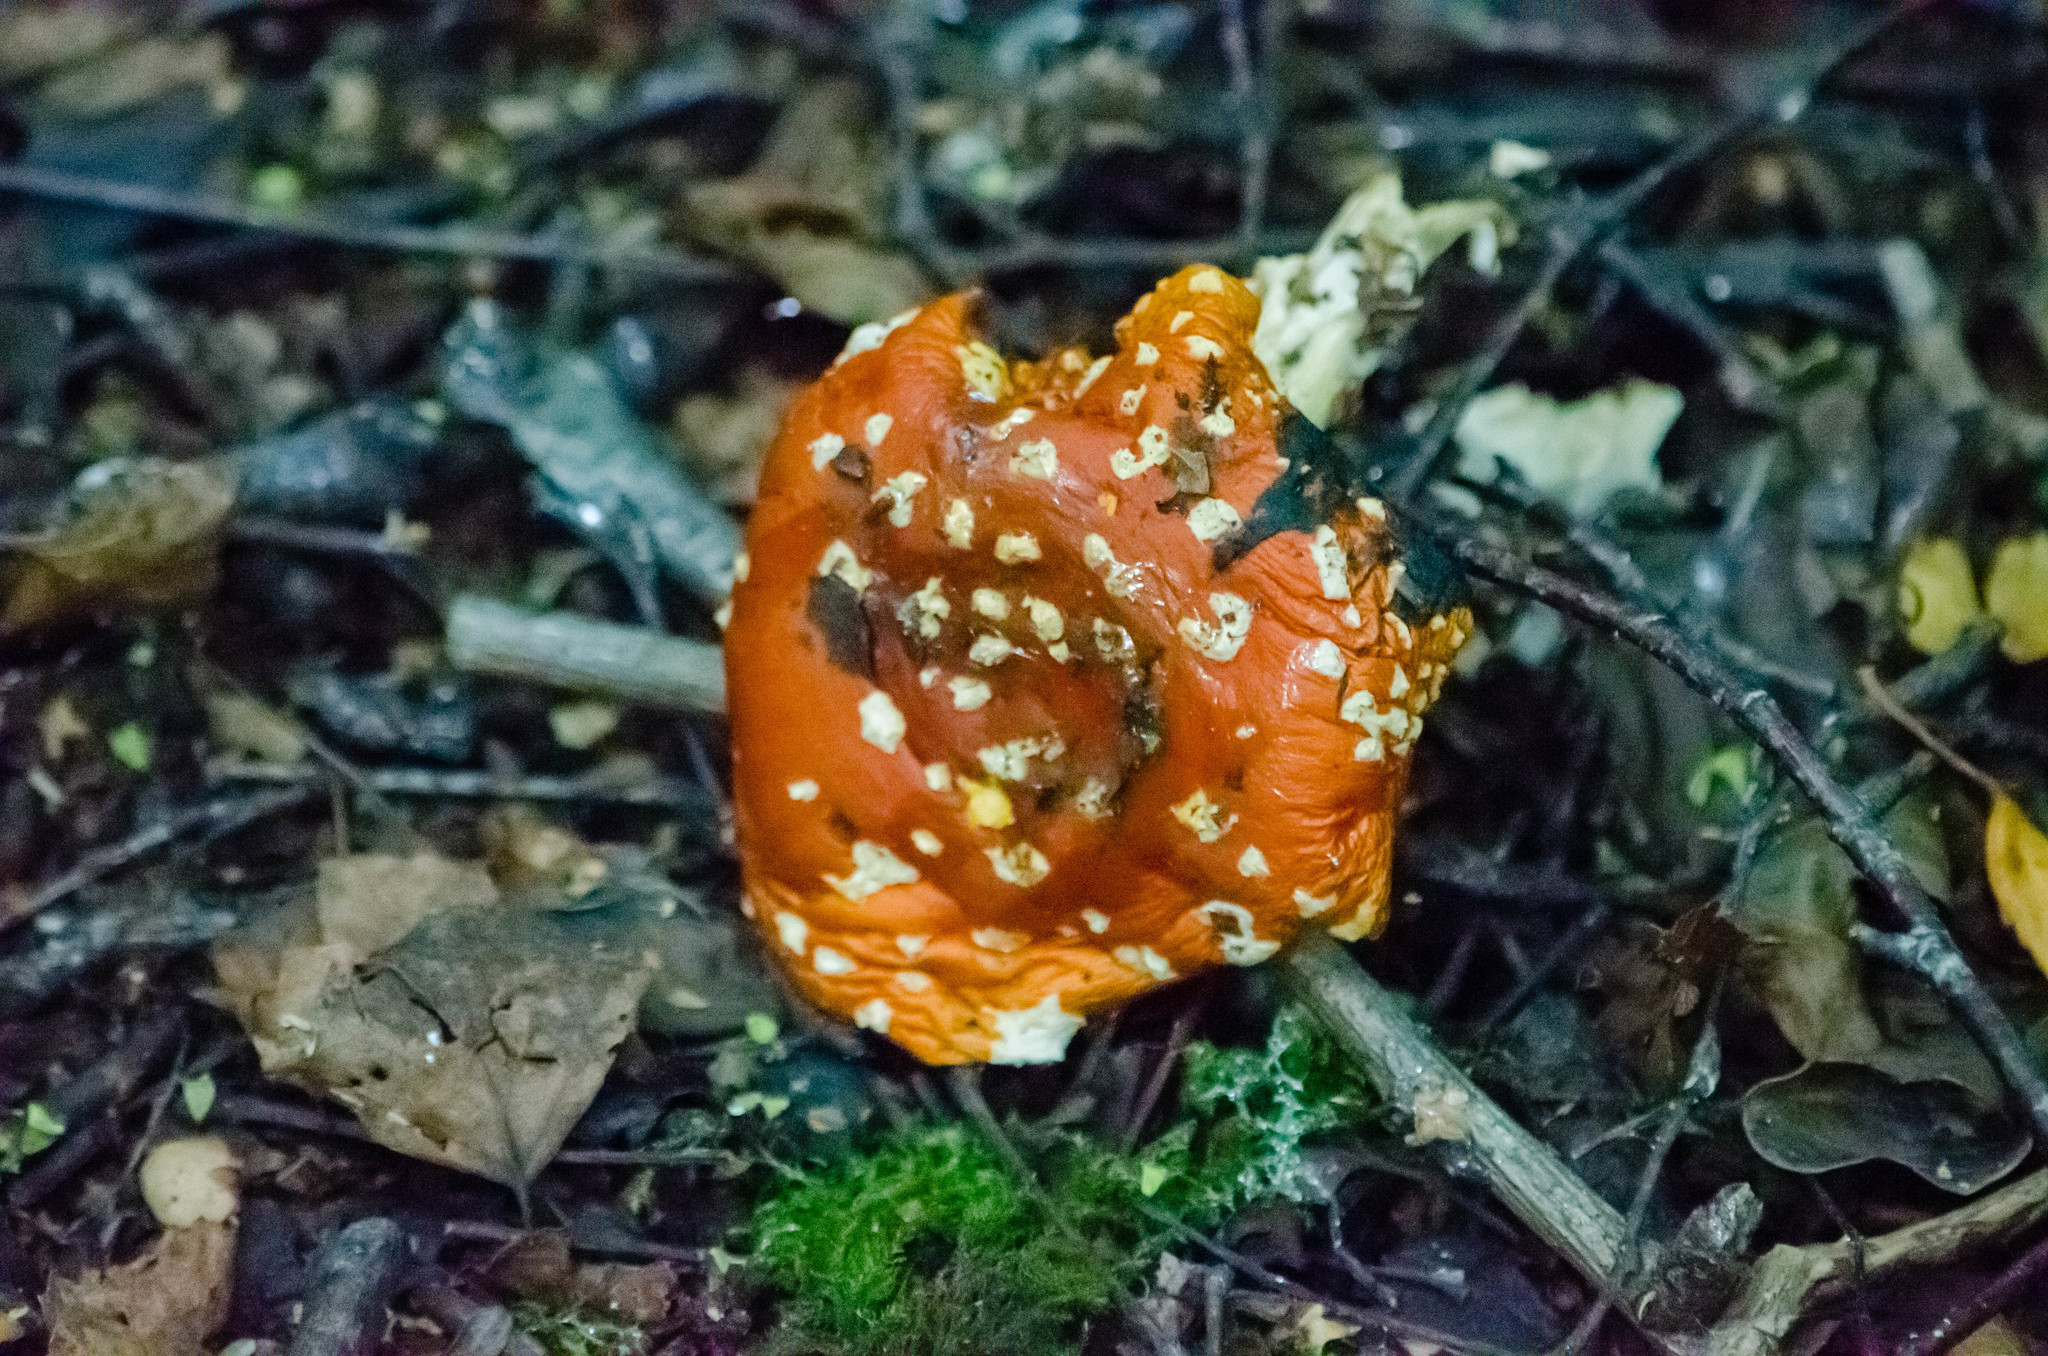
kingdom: Fungi
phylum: Basidiomycota
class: Agaricomycetes
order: Agaricales
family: Amanitaceae
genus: Amanita
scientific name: Amanita muscaria
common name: Fly agaric
